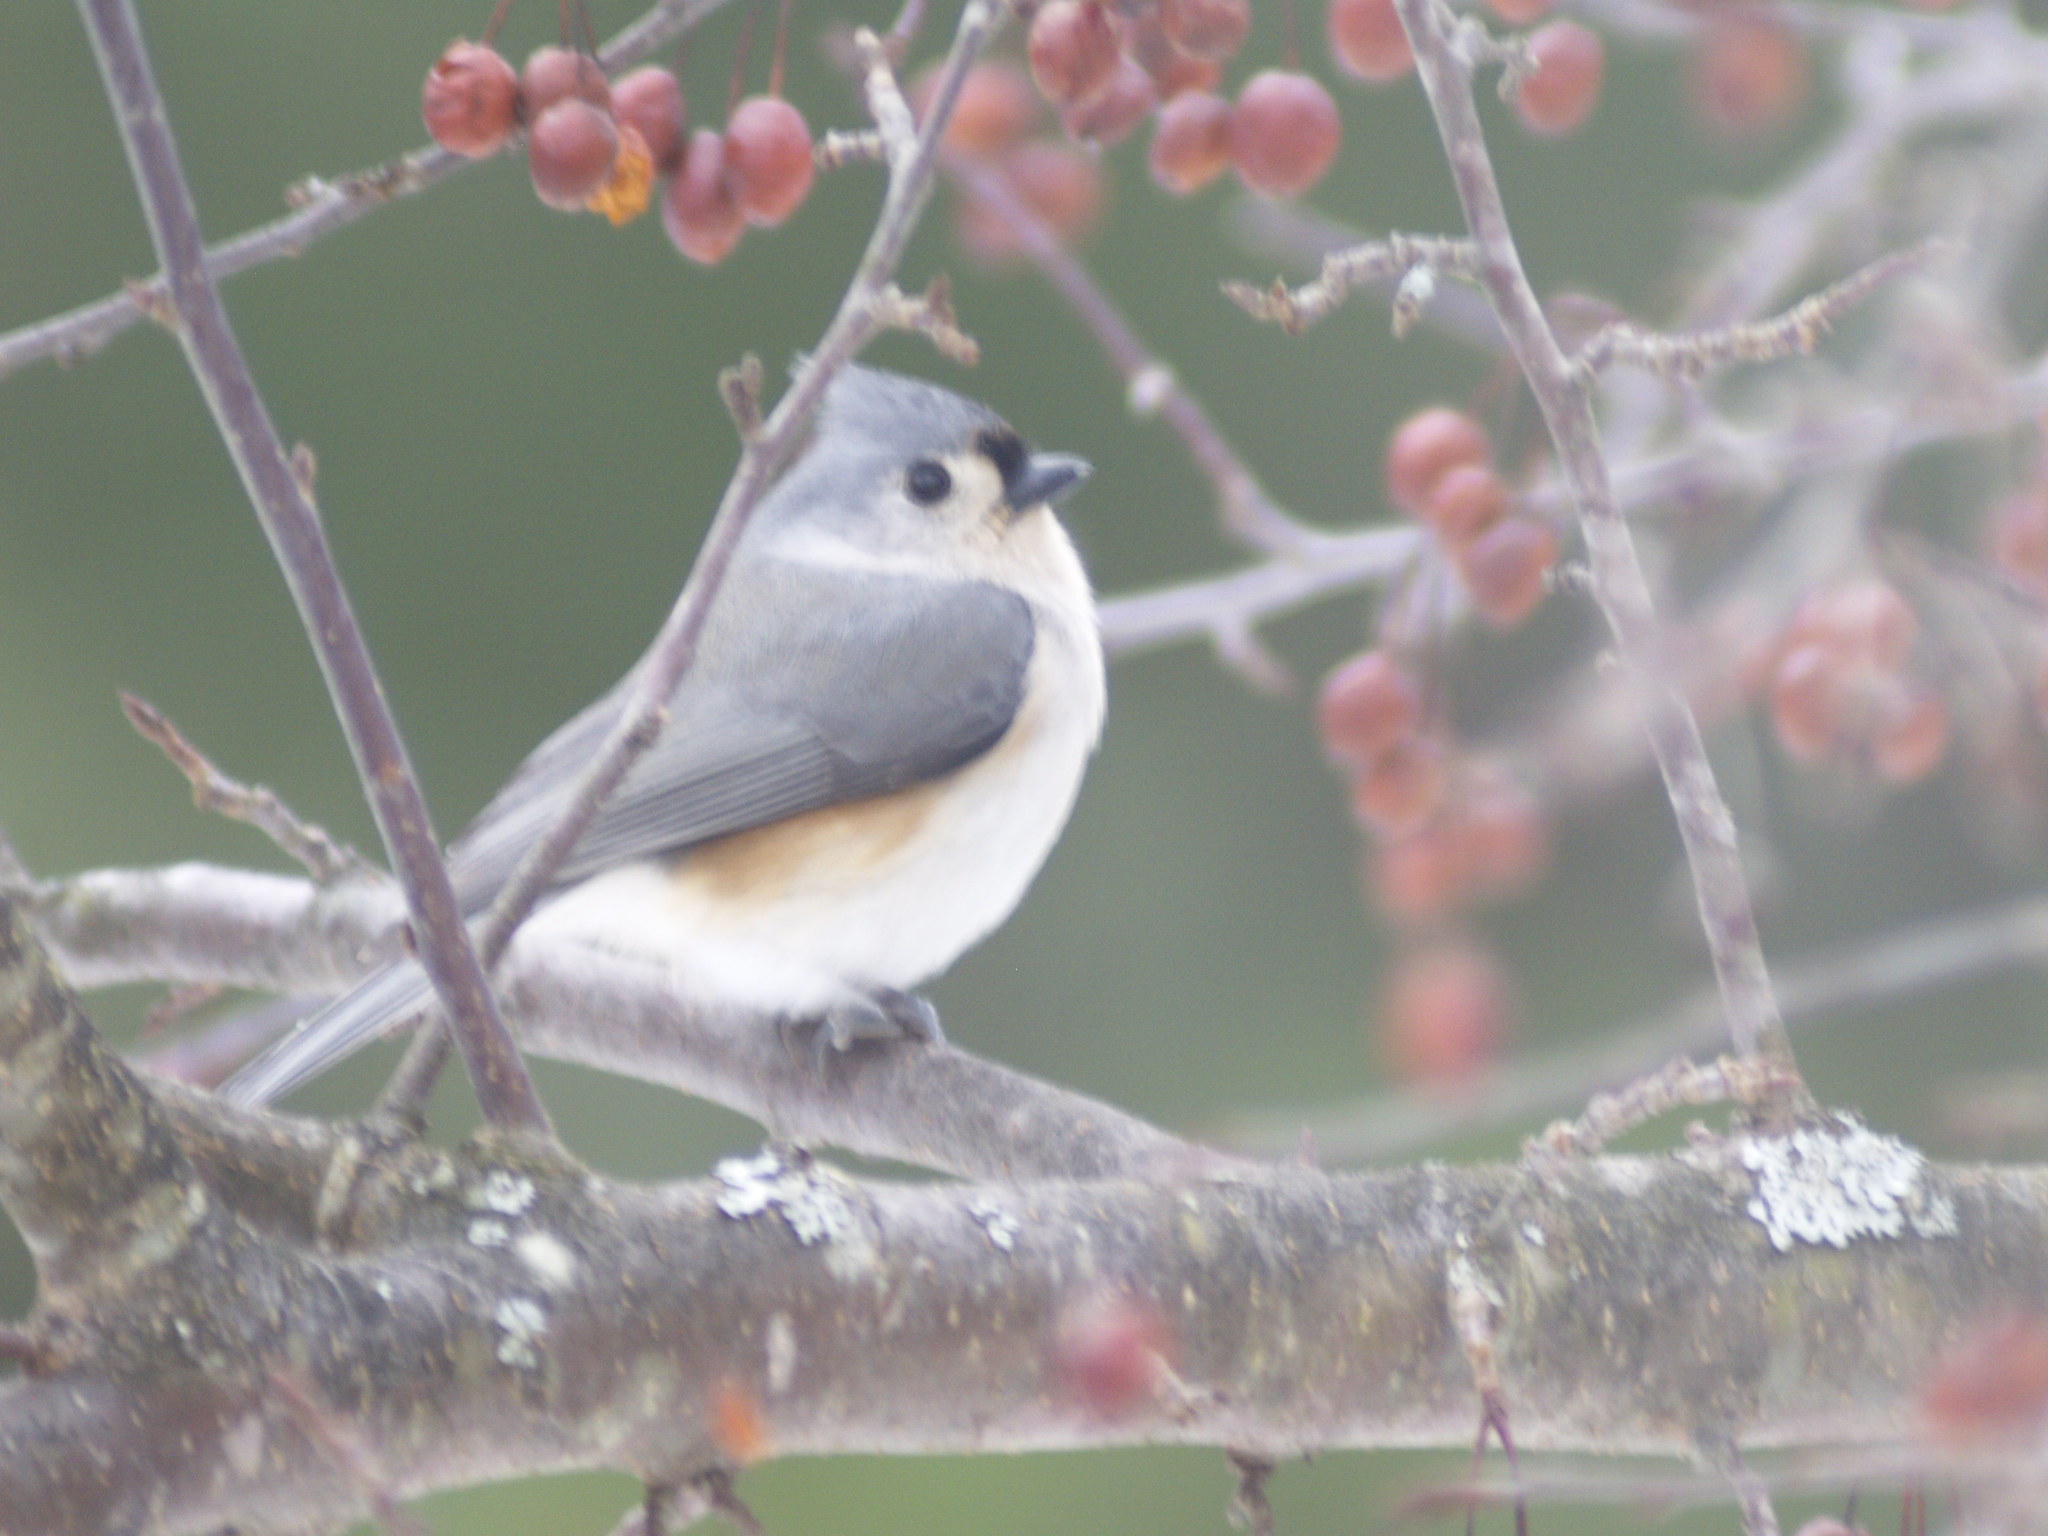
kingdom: Animalia
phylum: Chordata
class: Aves
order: Passeriformes
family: Paridae
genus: Baeolophus
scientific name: Baeolophus bicolor
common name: Tufted titmouse
